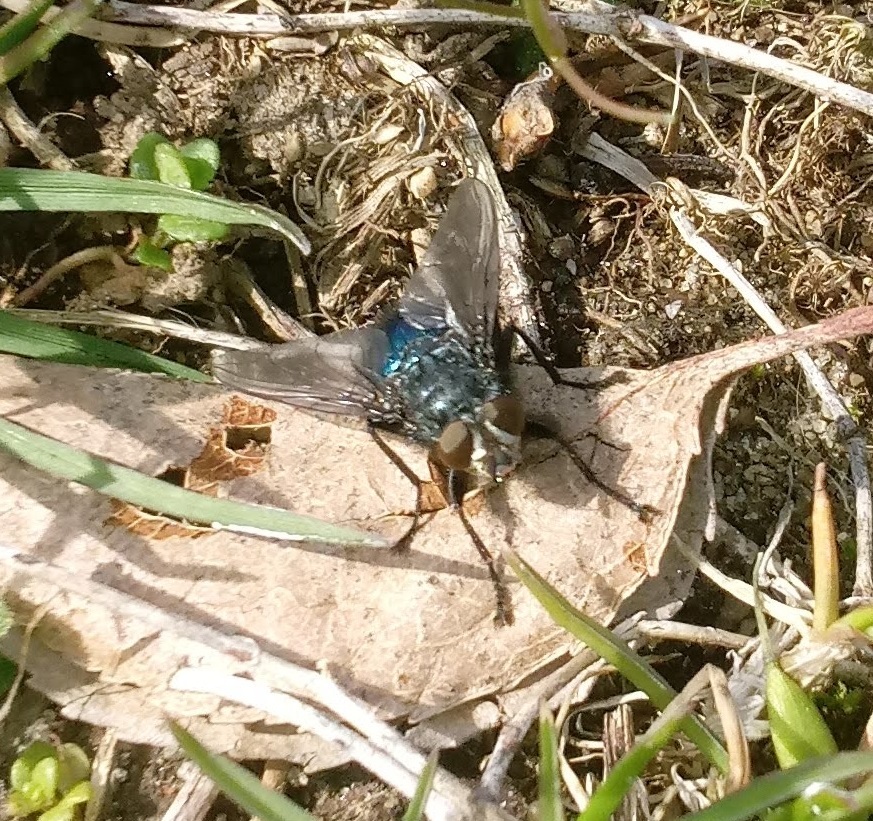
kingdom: Animalia
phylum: Arthropoda
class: Insecta
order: Diptera
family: Calliphoridae
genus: Cynomya
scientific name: Cynomya cadaverina
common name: Shiny blue bottle fly
